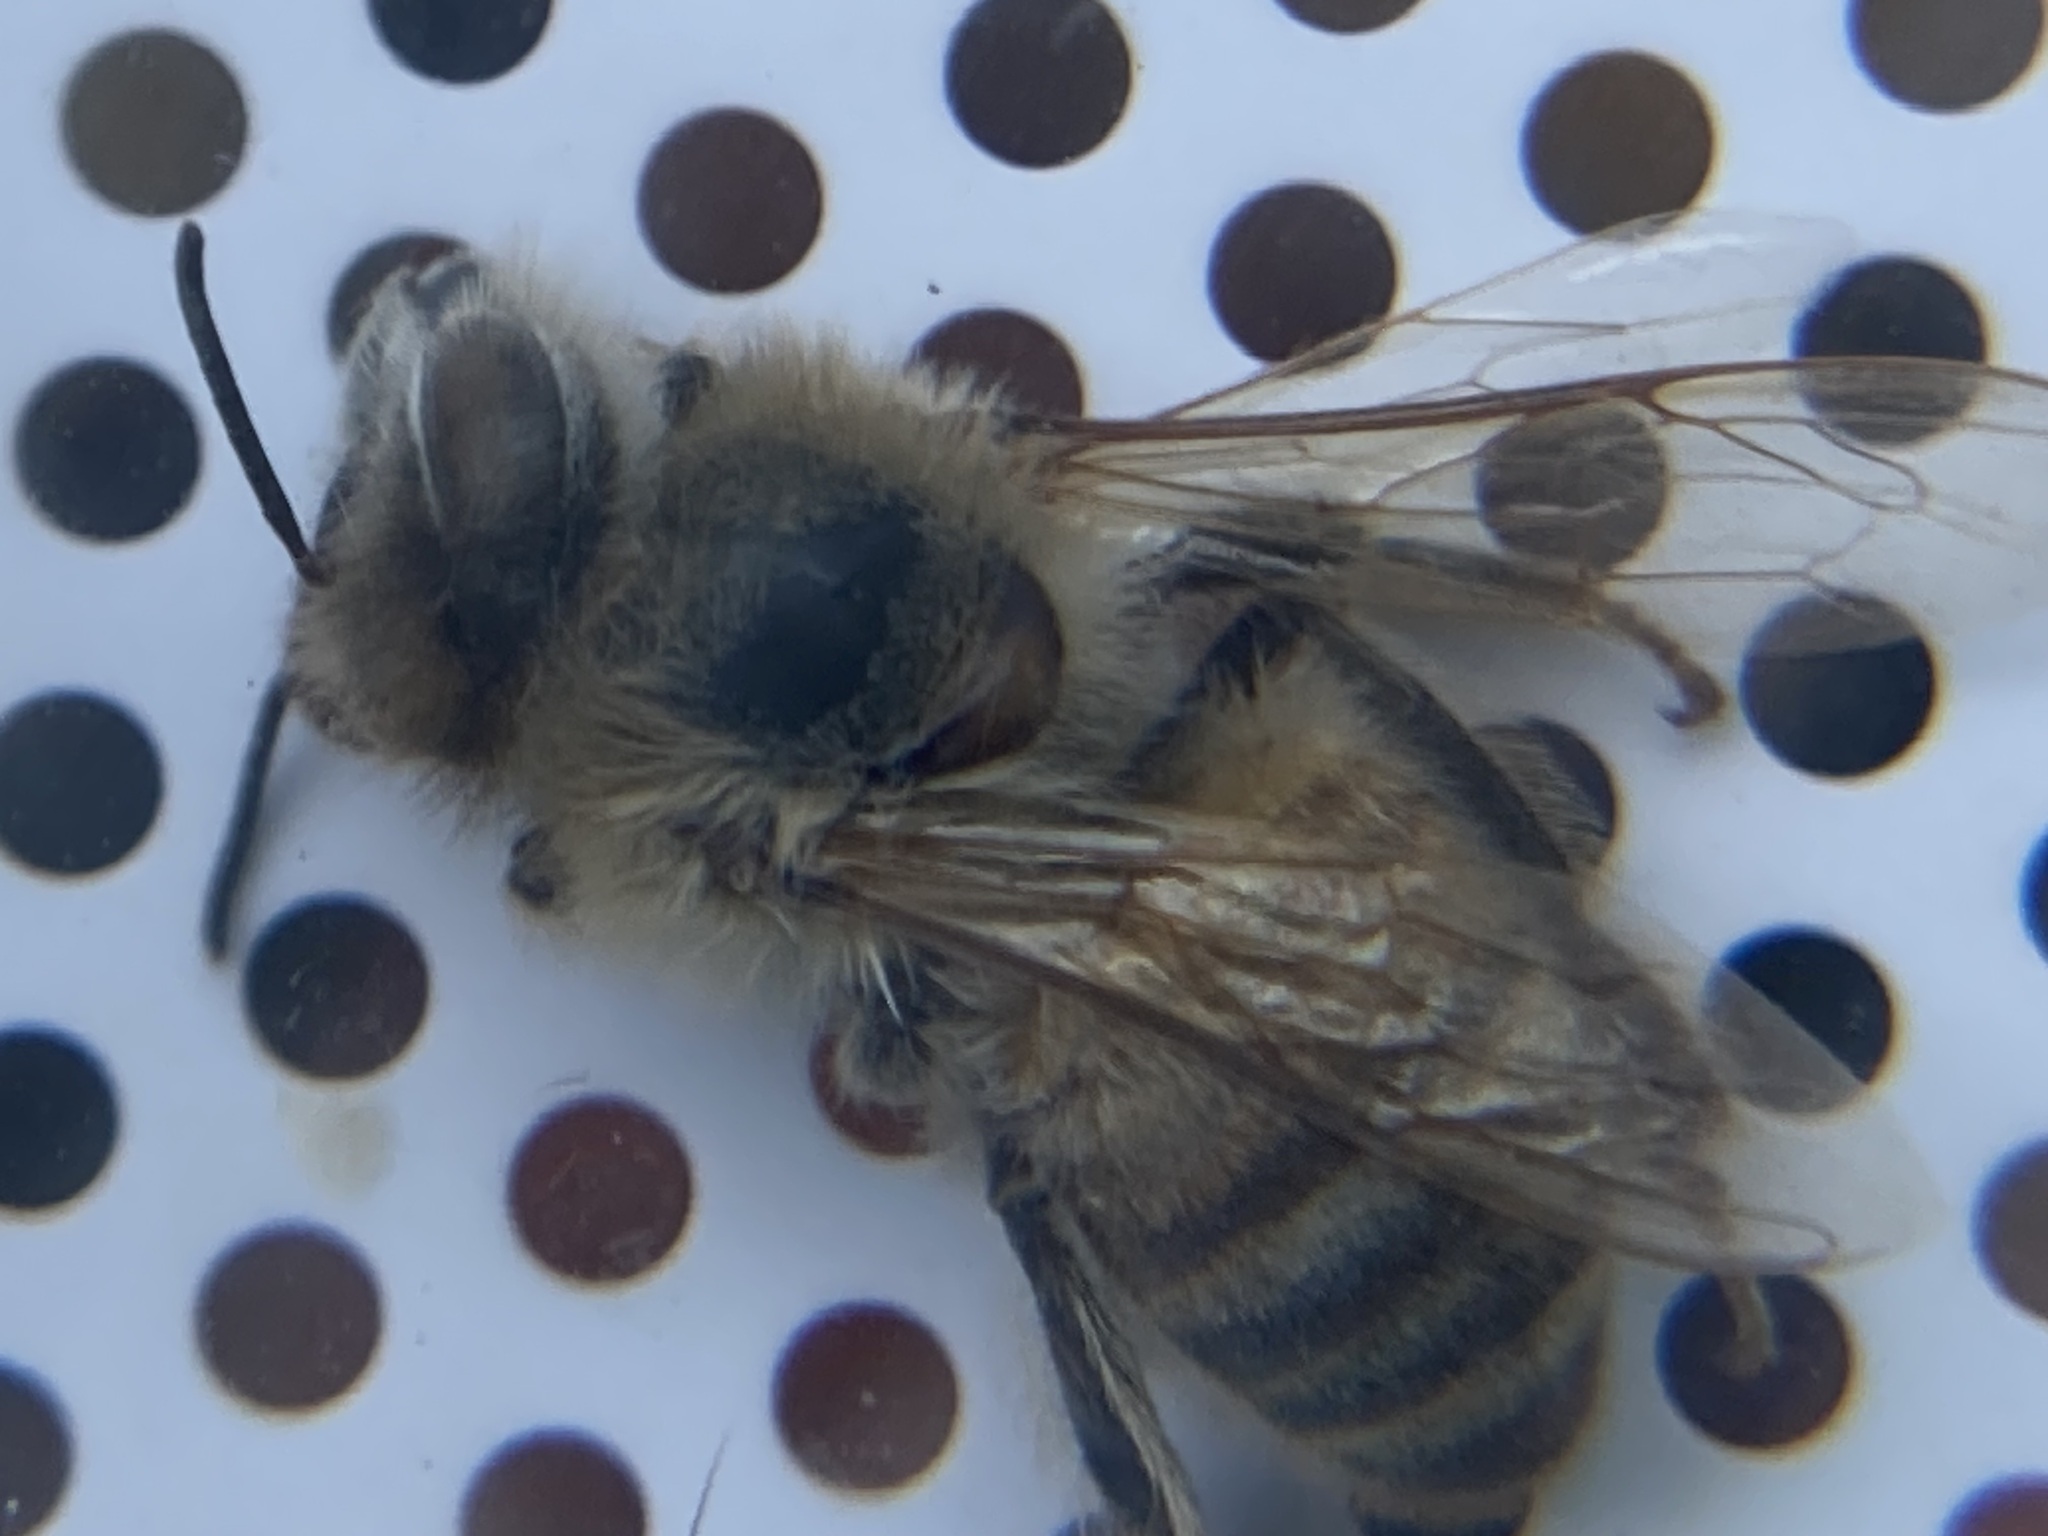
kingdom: Animalia
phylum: Arthropoda
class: Insecta
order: Hymenoptera
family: Apidae
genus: Apis
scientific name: Apis mellifera
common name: Honey bee
